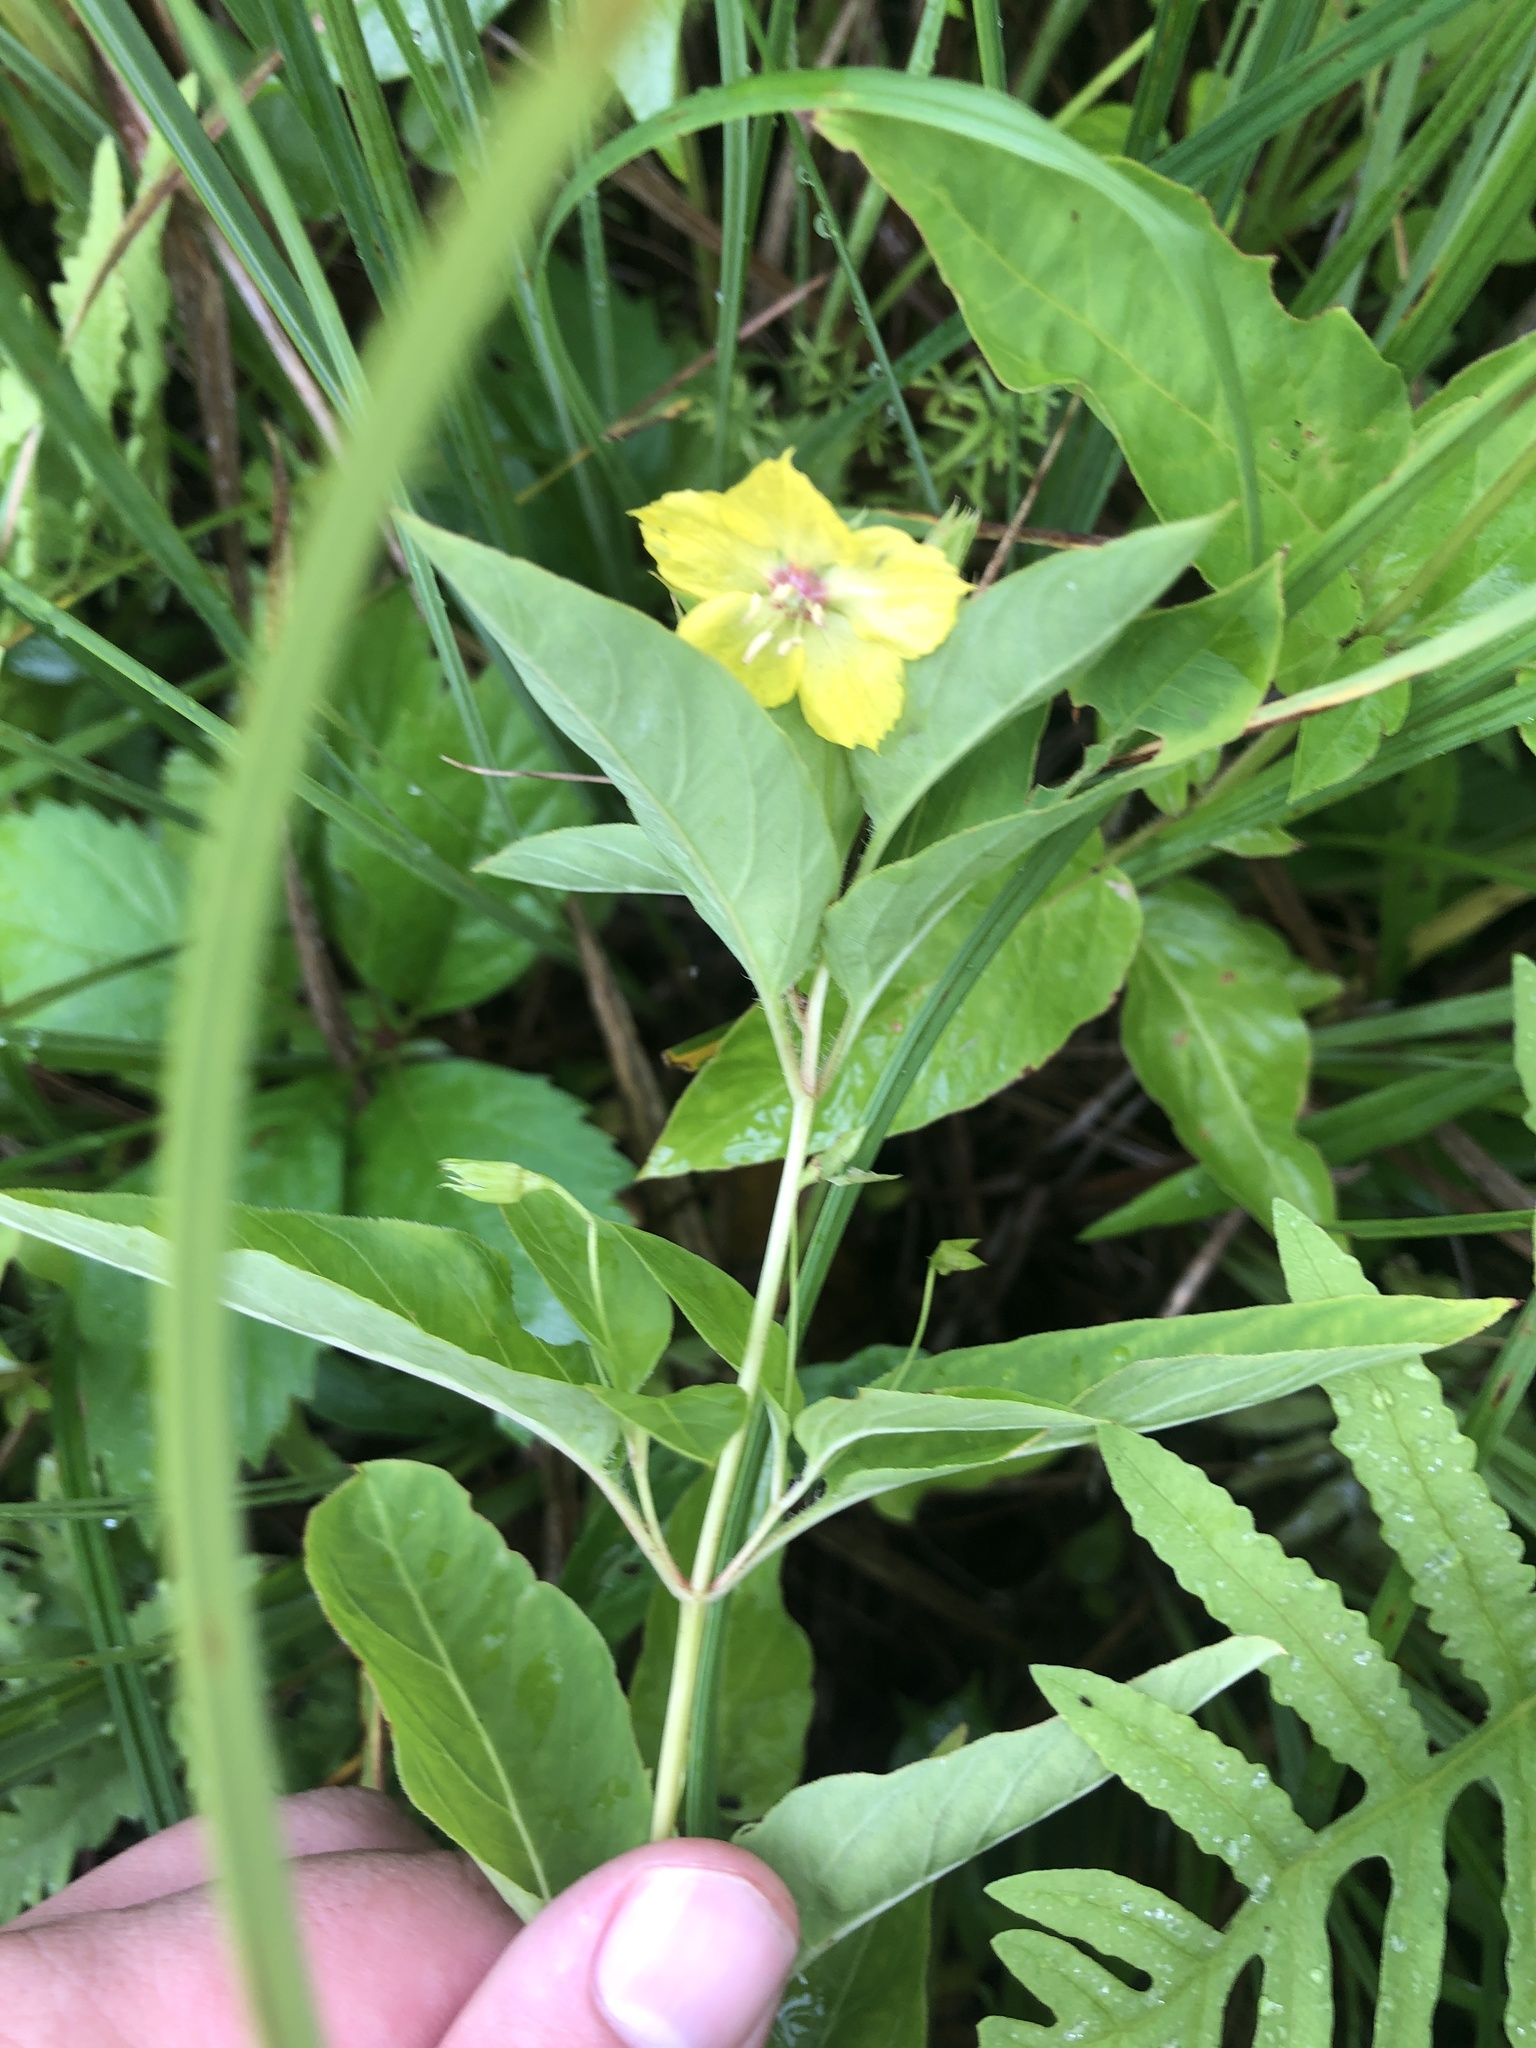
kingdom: Plantae
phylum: Tracheophyta
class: Magnoliopsida
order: Ericales
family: Primulaceae
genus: Lysimachia
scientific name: Lysimachia ciliata
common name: Fringed loosestrife
